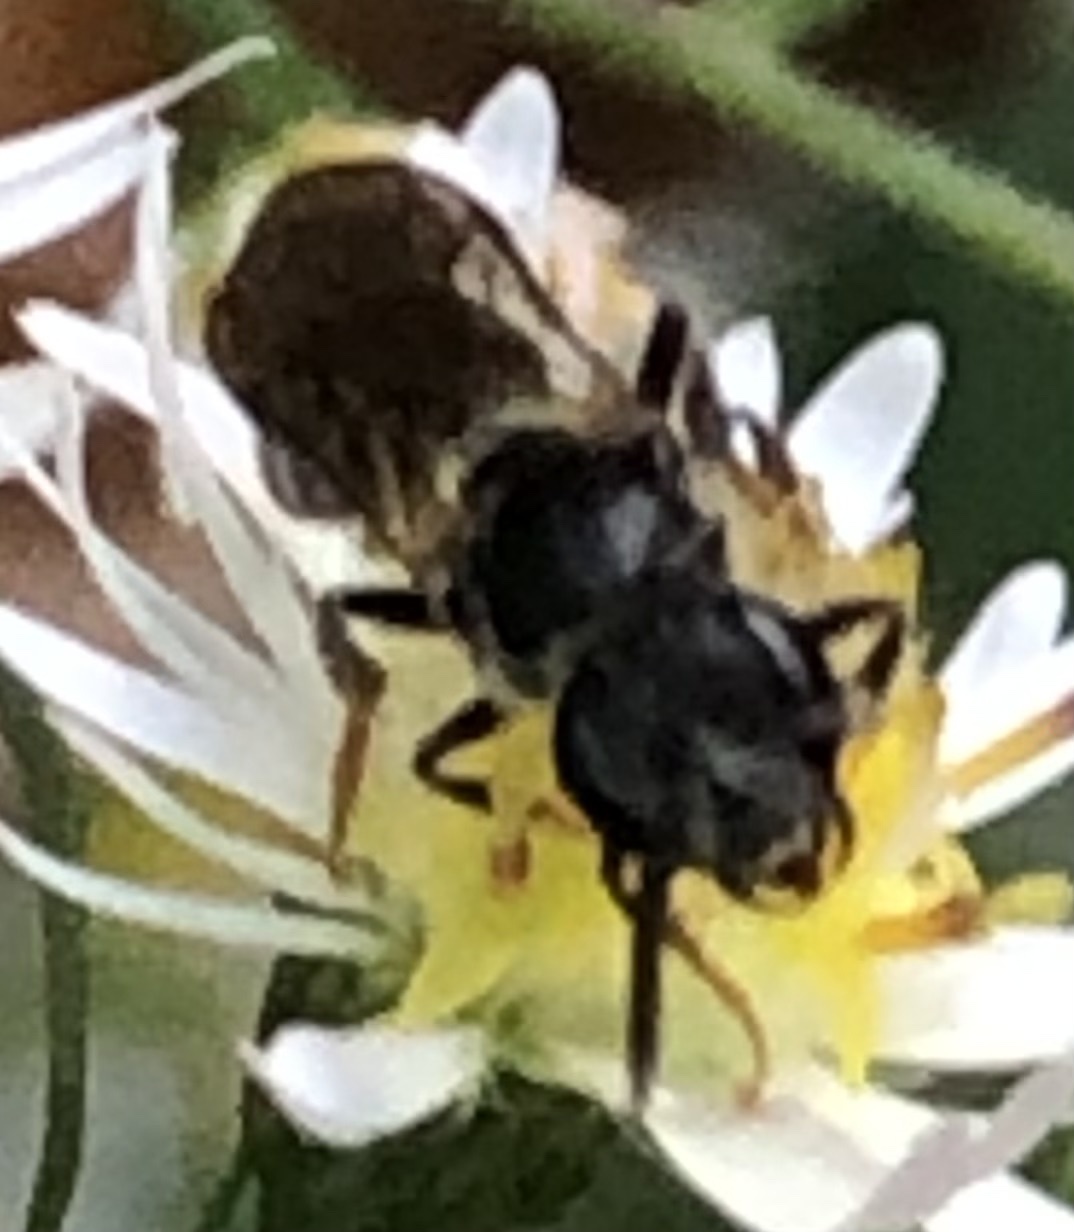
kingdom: Animalia
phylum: Arthropoda
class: Insecta
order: Hymenoptera
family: Halictidae
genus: Lasioglossum
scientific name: Lasioglossum fuscipenne
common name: Brown-winged sweat bee
